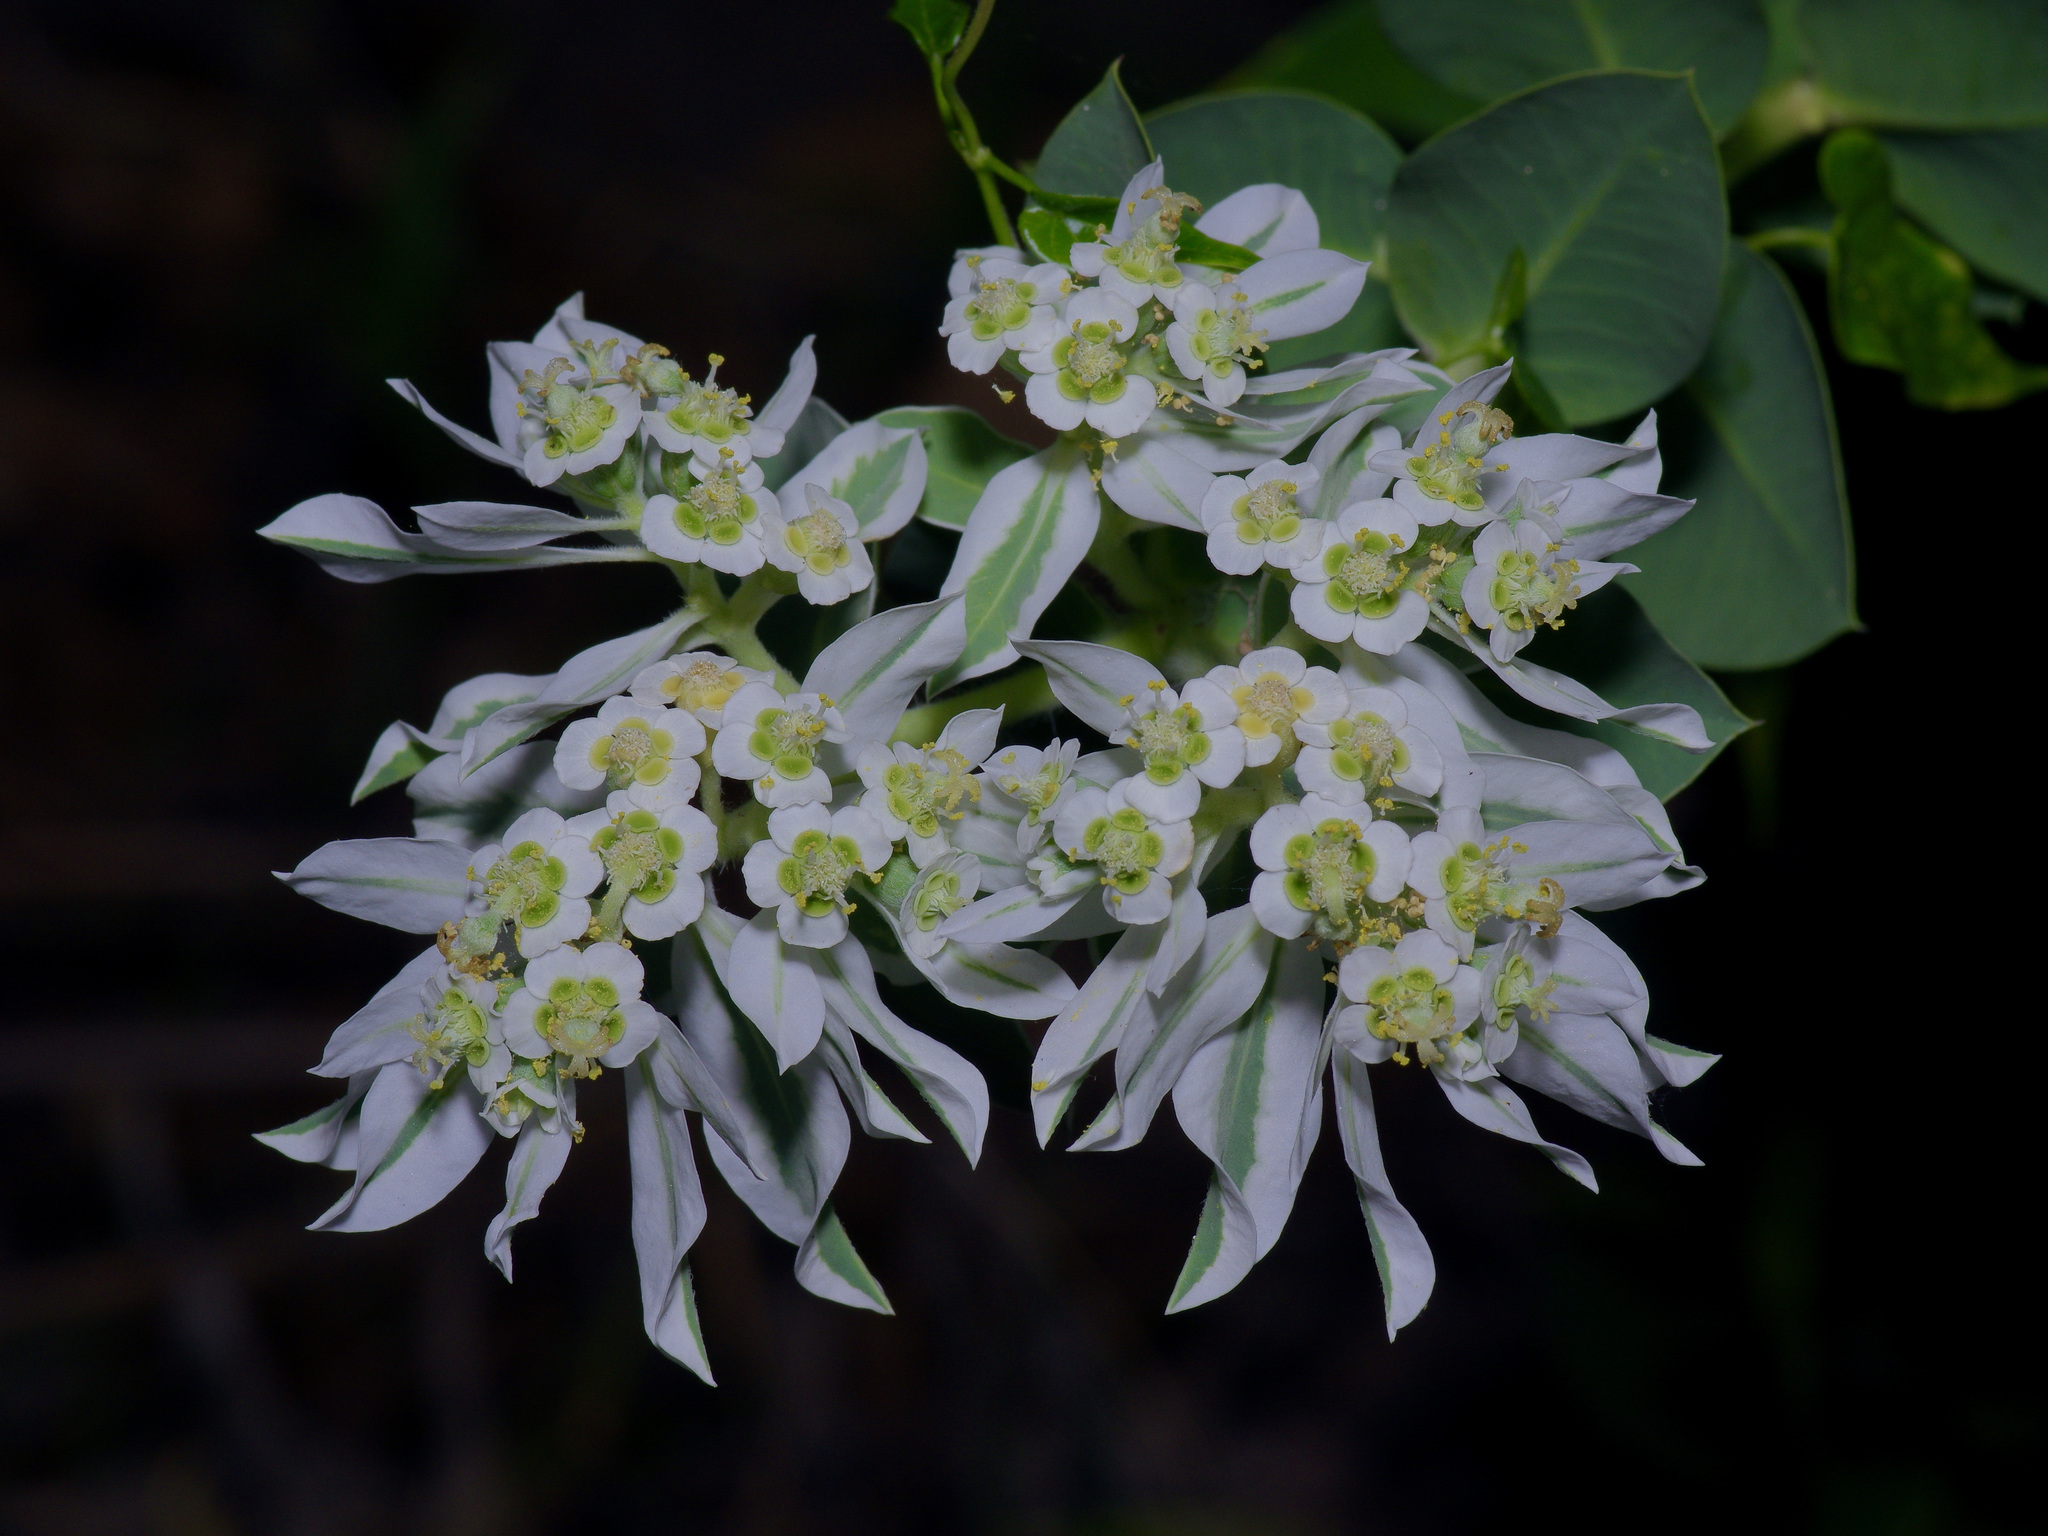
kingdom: Plantae
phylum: Tracheophyta
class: Magnoliopsida
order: Malpighiales
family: Euphorbiaceae
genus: Euphorbia
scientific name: Euphorbia marginata
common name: Ghostweed
